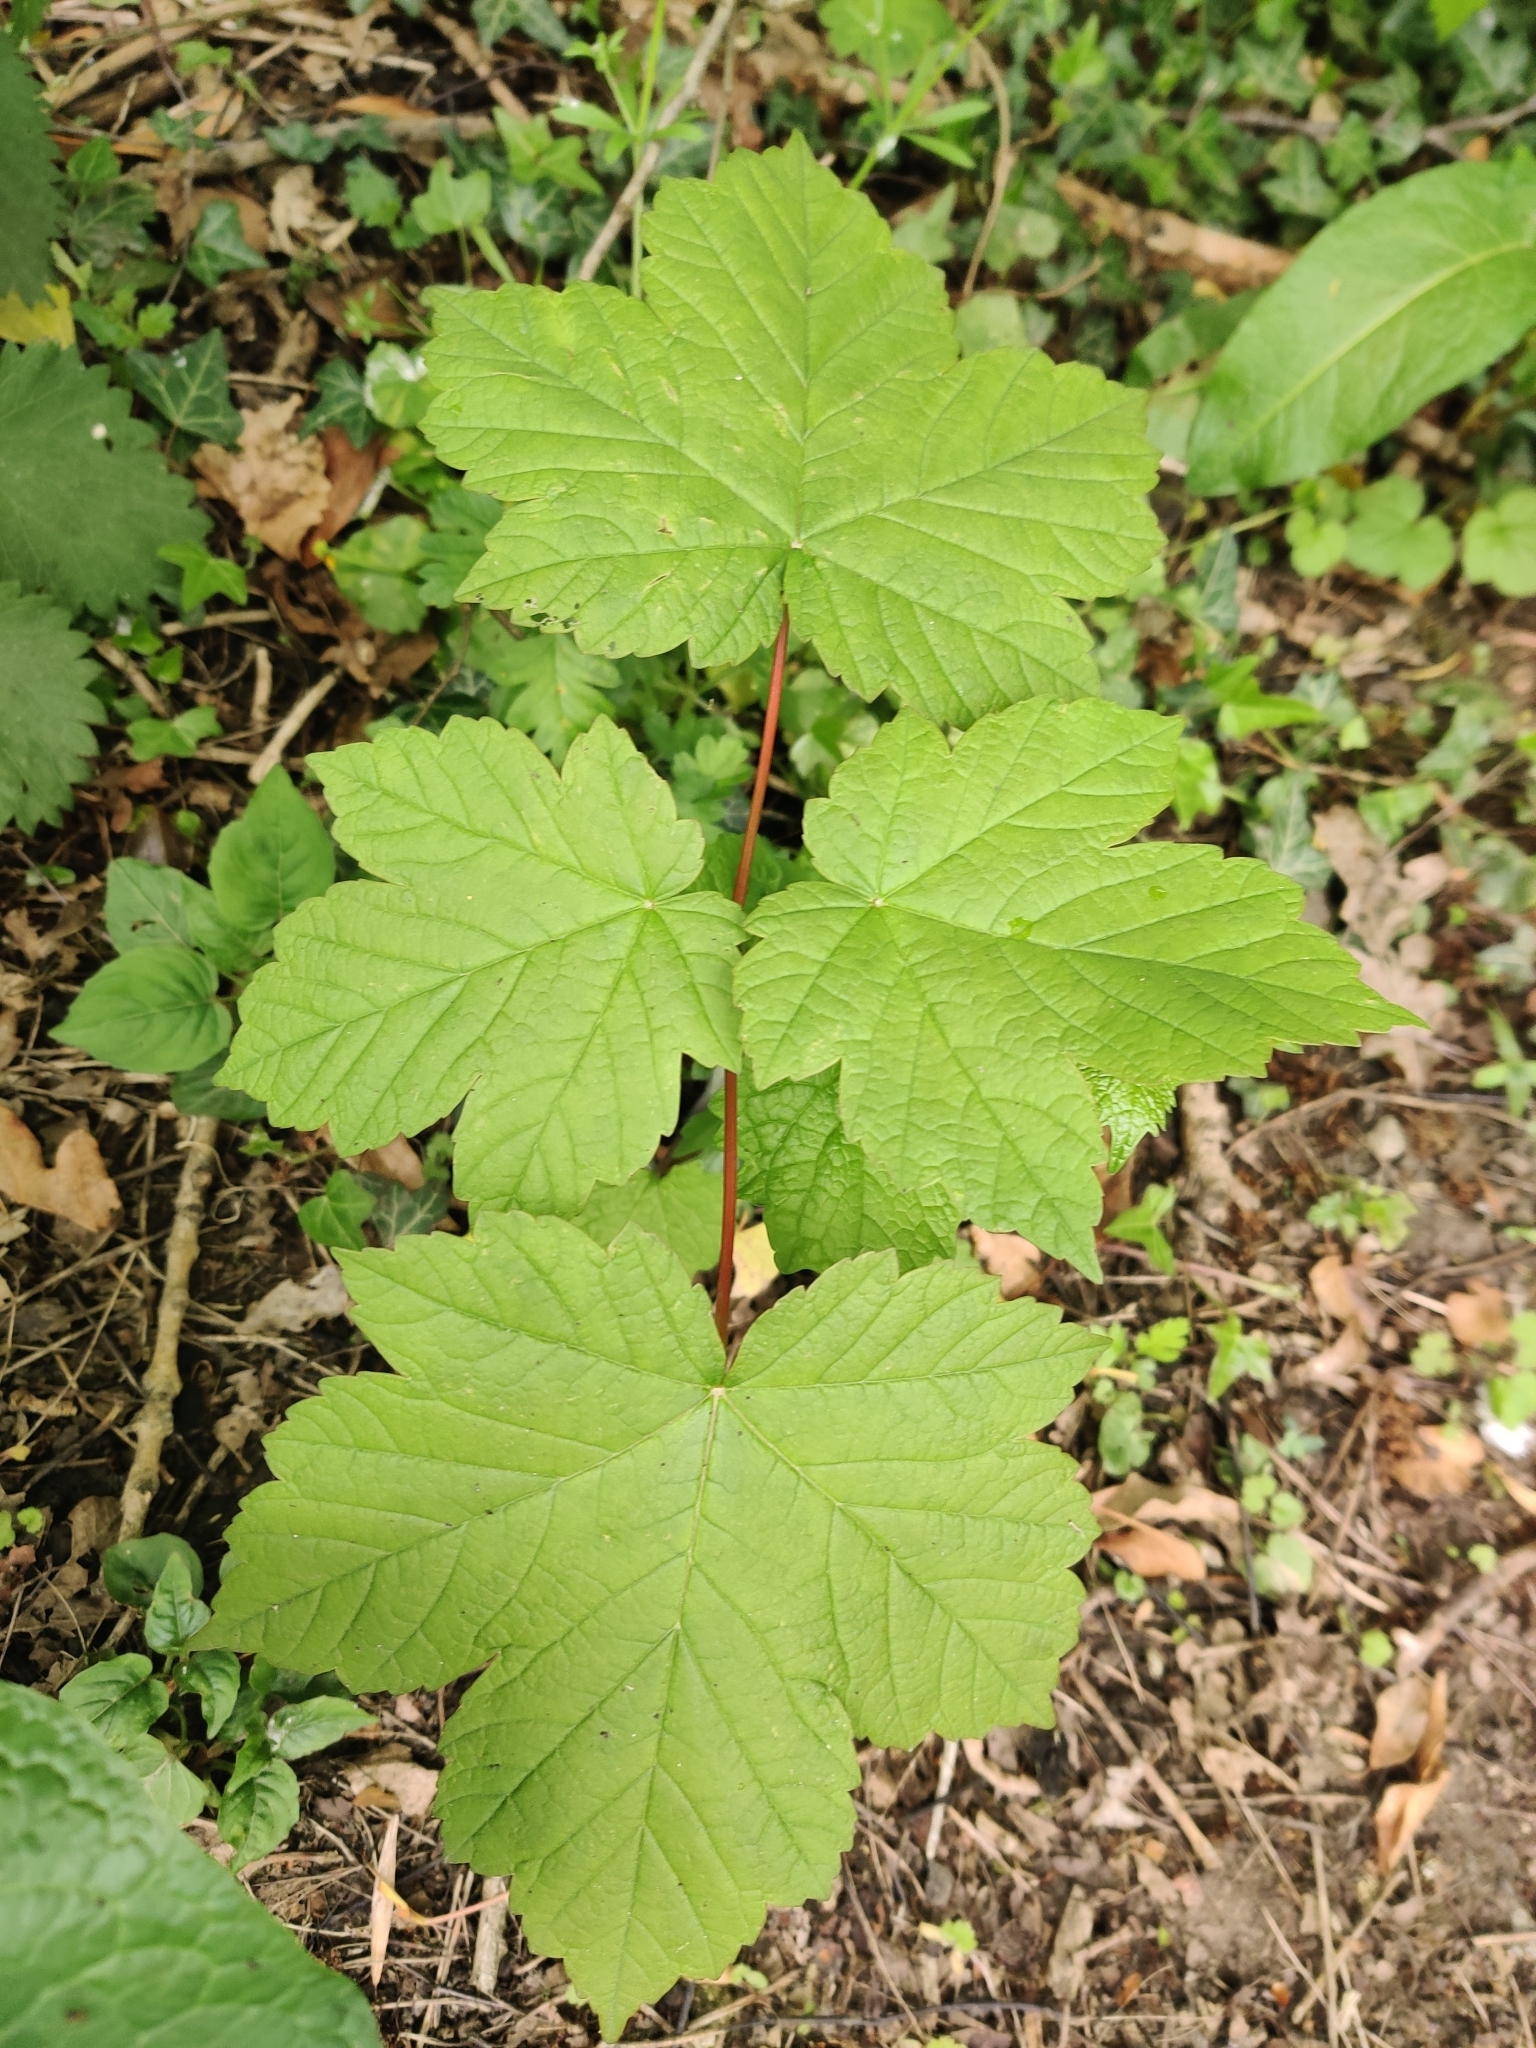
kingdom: Plantae
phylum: Tracheophyta
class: Magnoliopsida
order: Sapindales
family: Sapindaceae
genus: Acer
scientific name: Acer pseudoplatanus
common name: Sycamore
